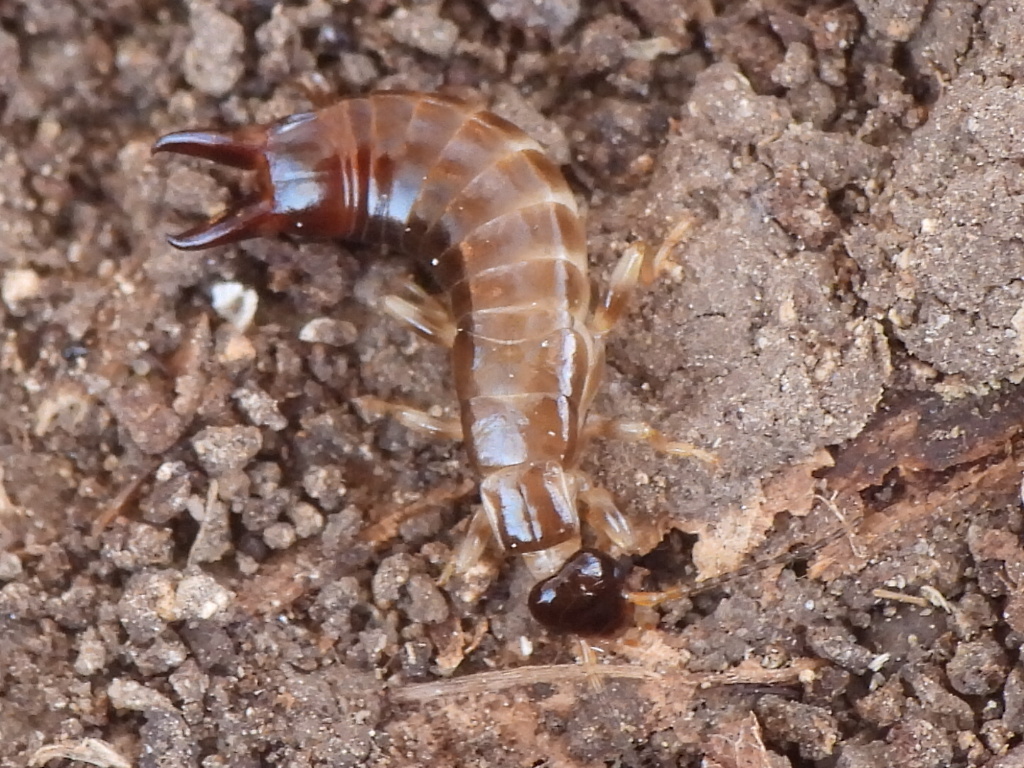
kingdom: Animalia
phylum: Arthropoda
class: Insecta
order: Dermaptera
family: Anisolabididae
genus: Euborellia
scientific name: Euborellia annulipes
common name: Ringlegged earwig
